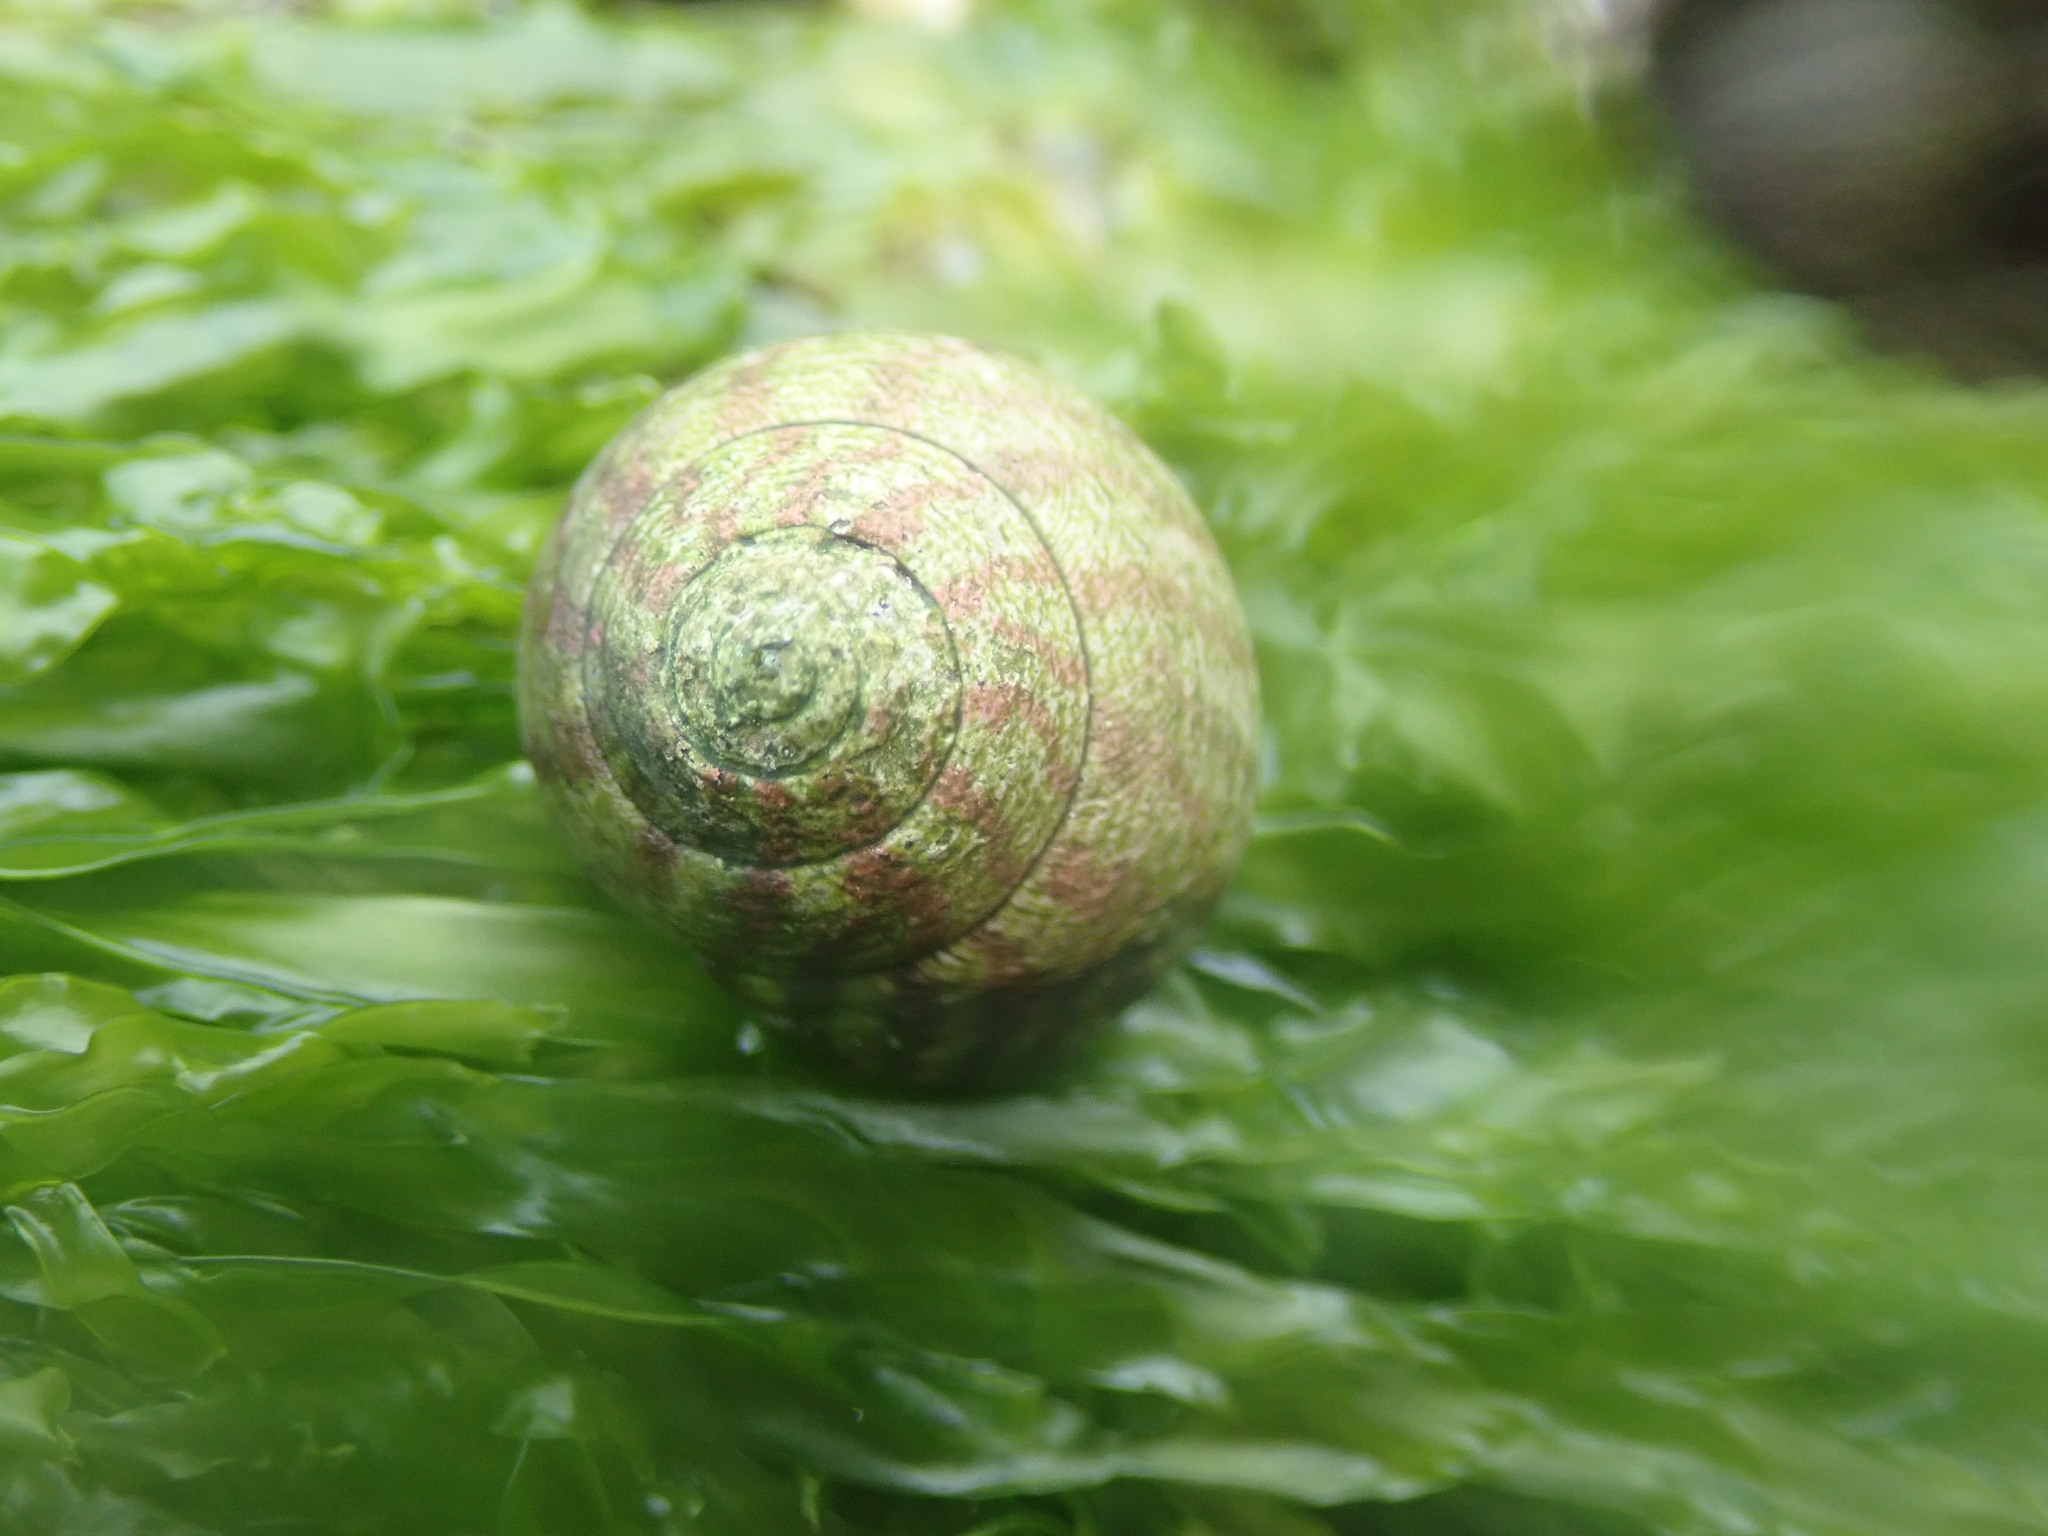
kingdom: Animalia
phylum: Mollusca
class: Gastropoda
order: Trochida
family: Trochidae
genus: Steromphala
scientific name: Steromphala umbilicalis
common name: Flat top shell
